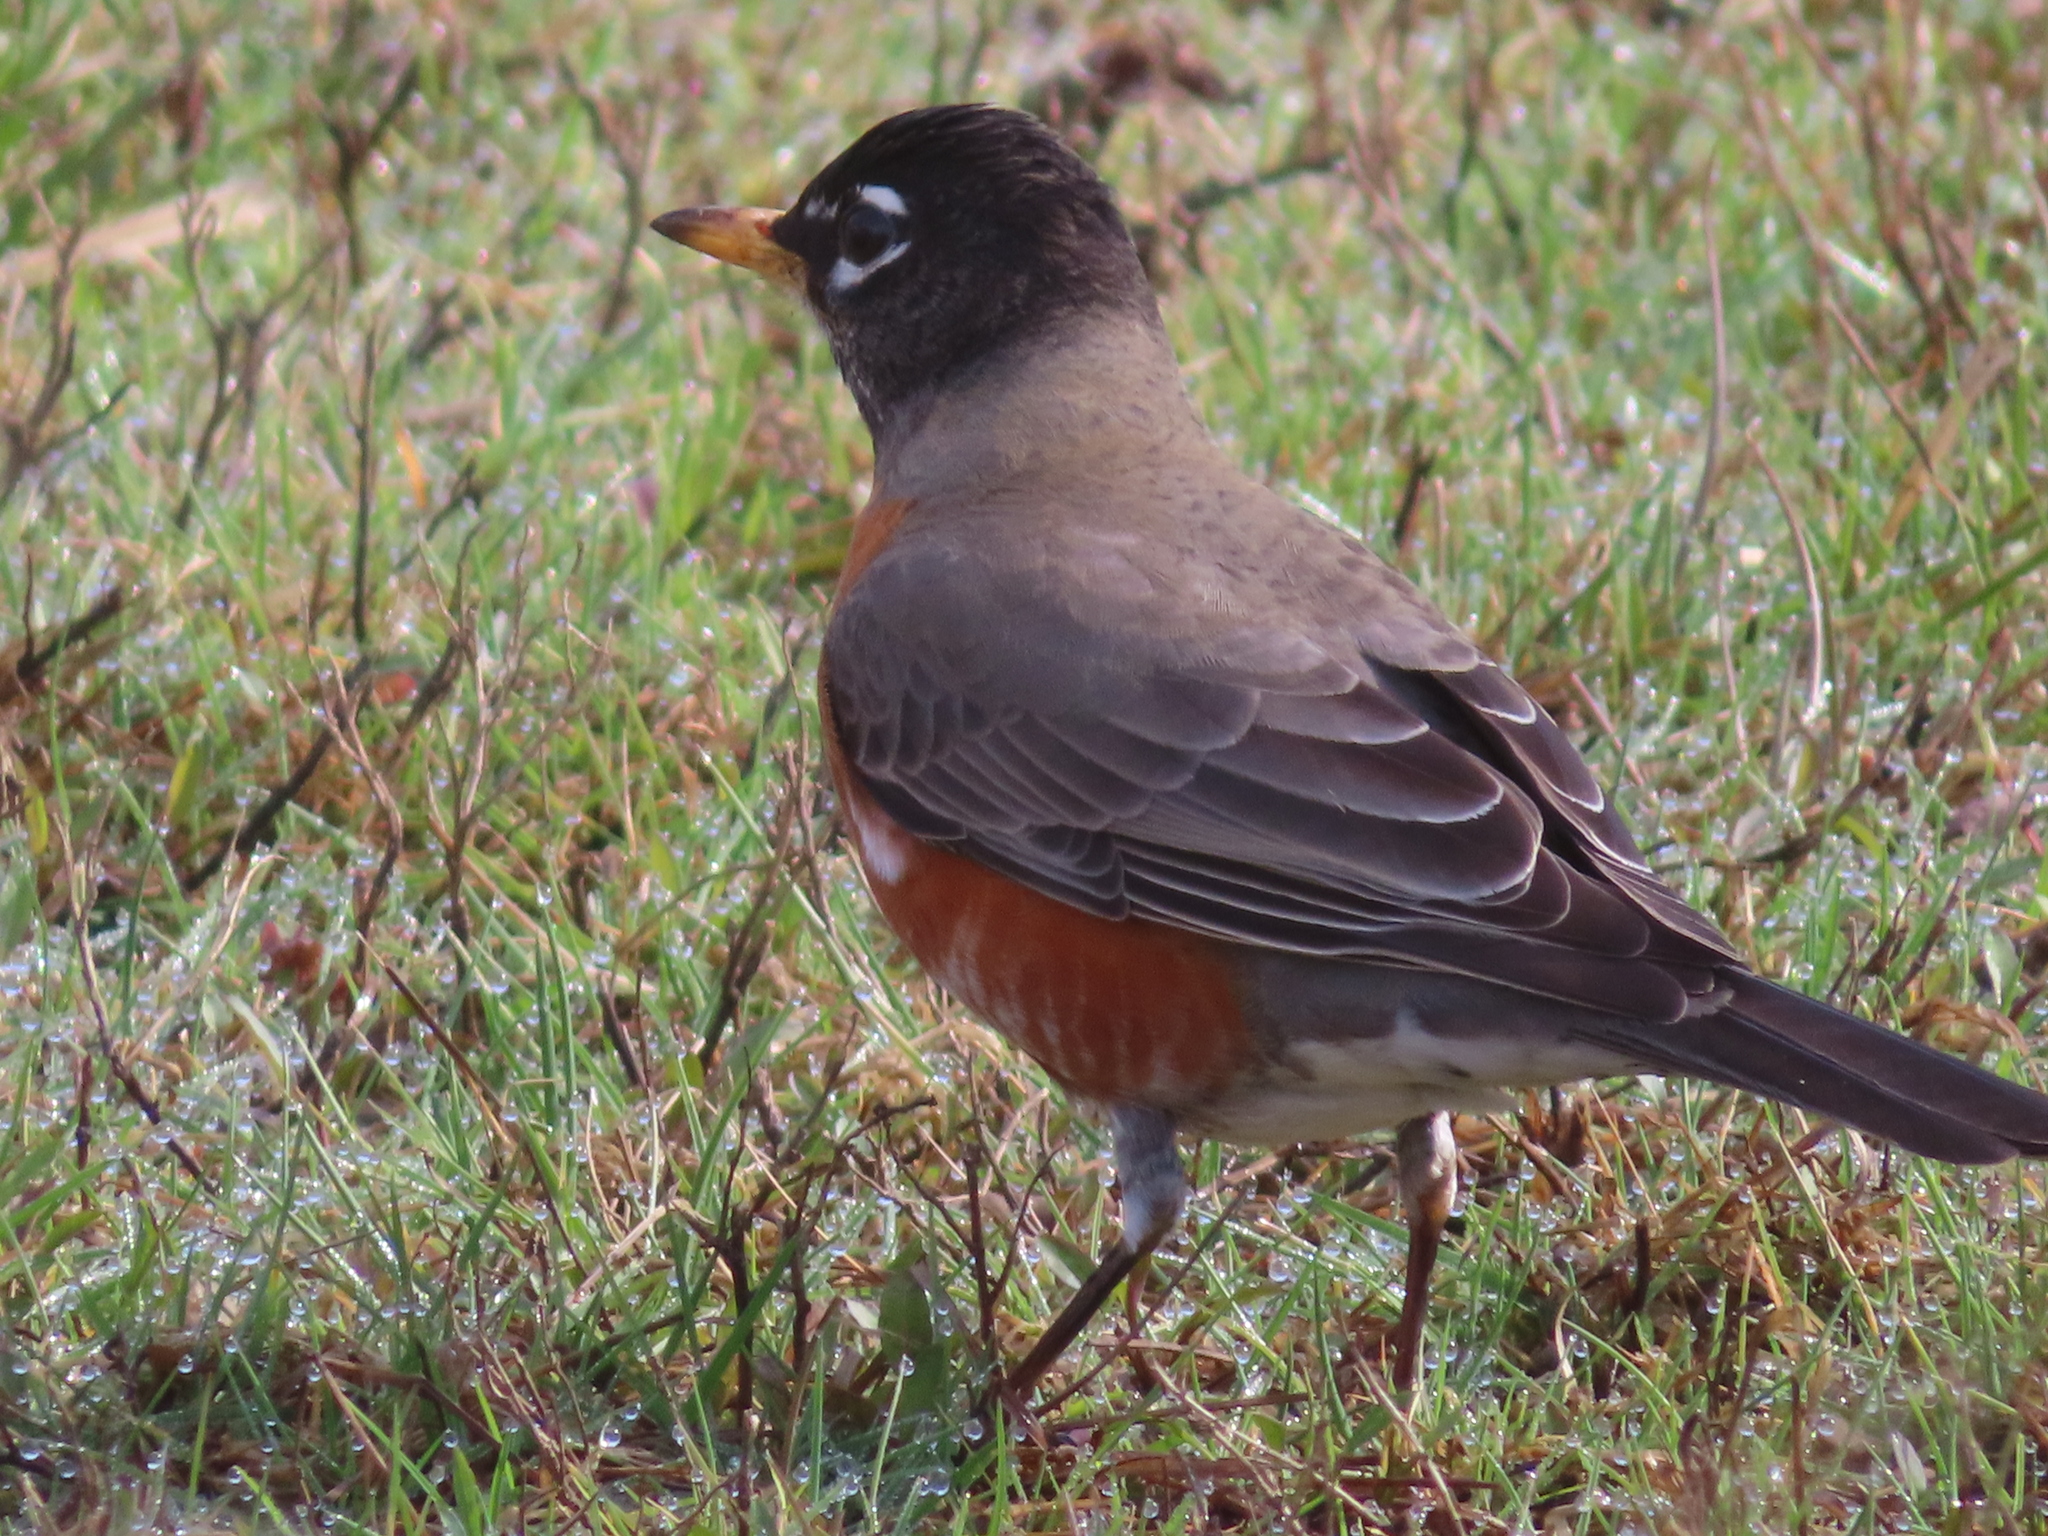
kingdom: Animalia
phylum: Chordata
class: Aves
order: Passeriformes
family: Turdidae
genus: Turdus
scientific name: Turdus migratorius
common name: American robin
